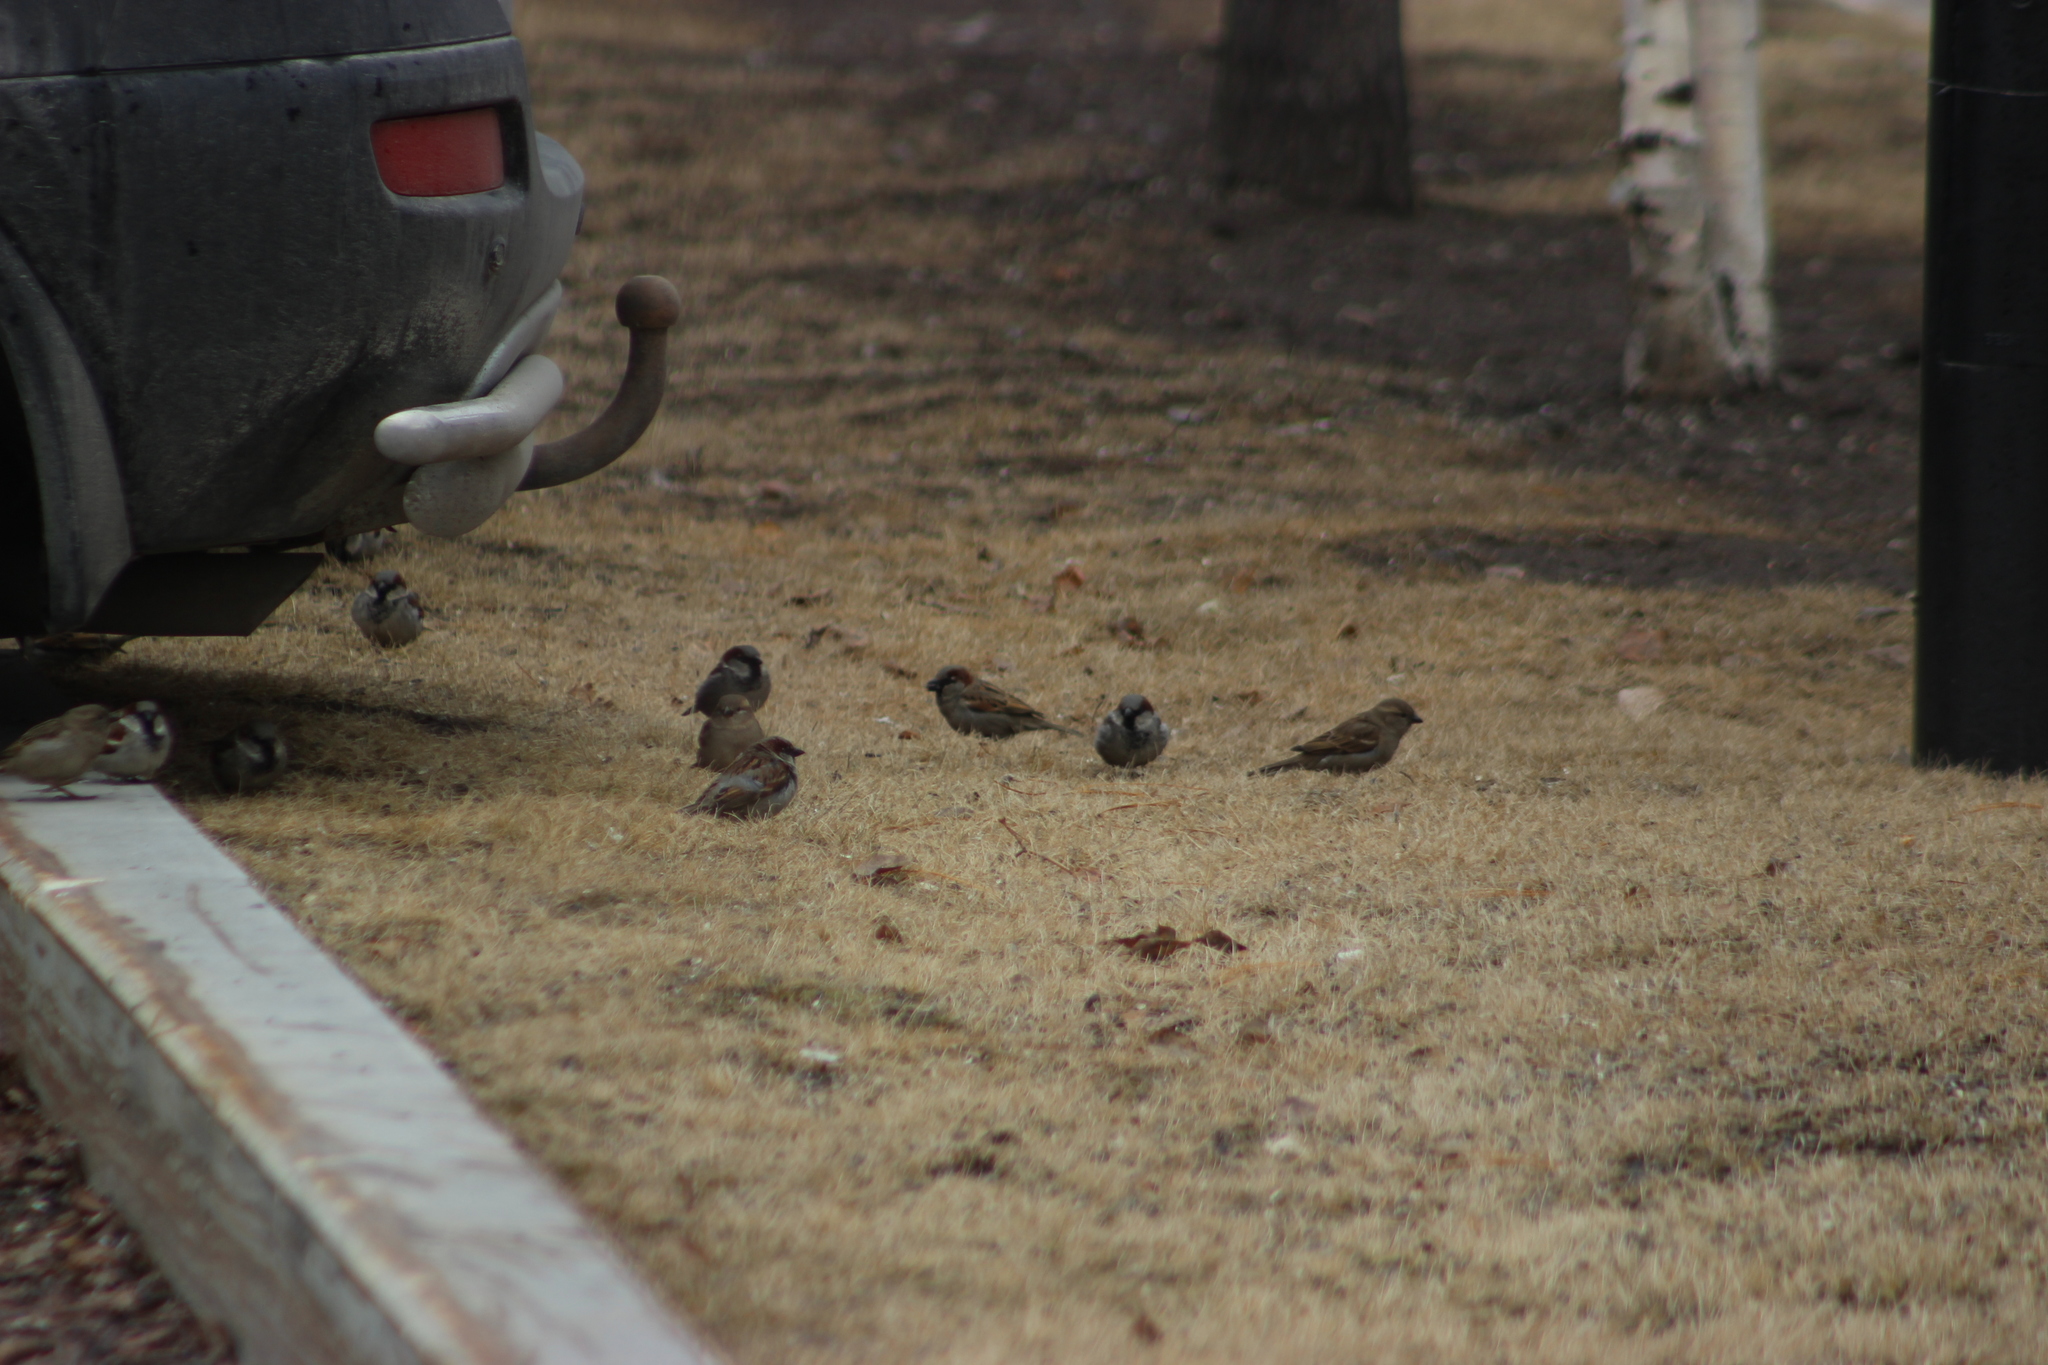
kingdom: Animalia
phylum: Chordata
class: Aves
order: Passeriformes
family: Passeridae
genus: Passer
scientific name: Passer domesticus
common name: House sparrow
